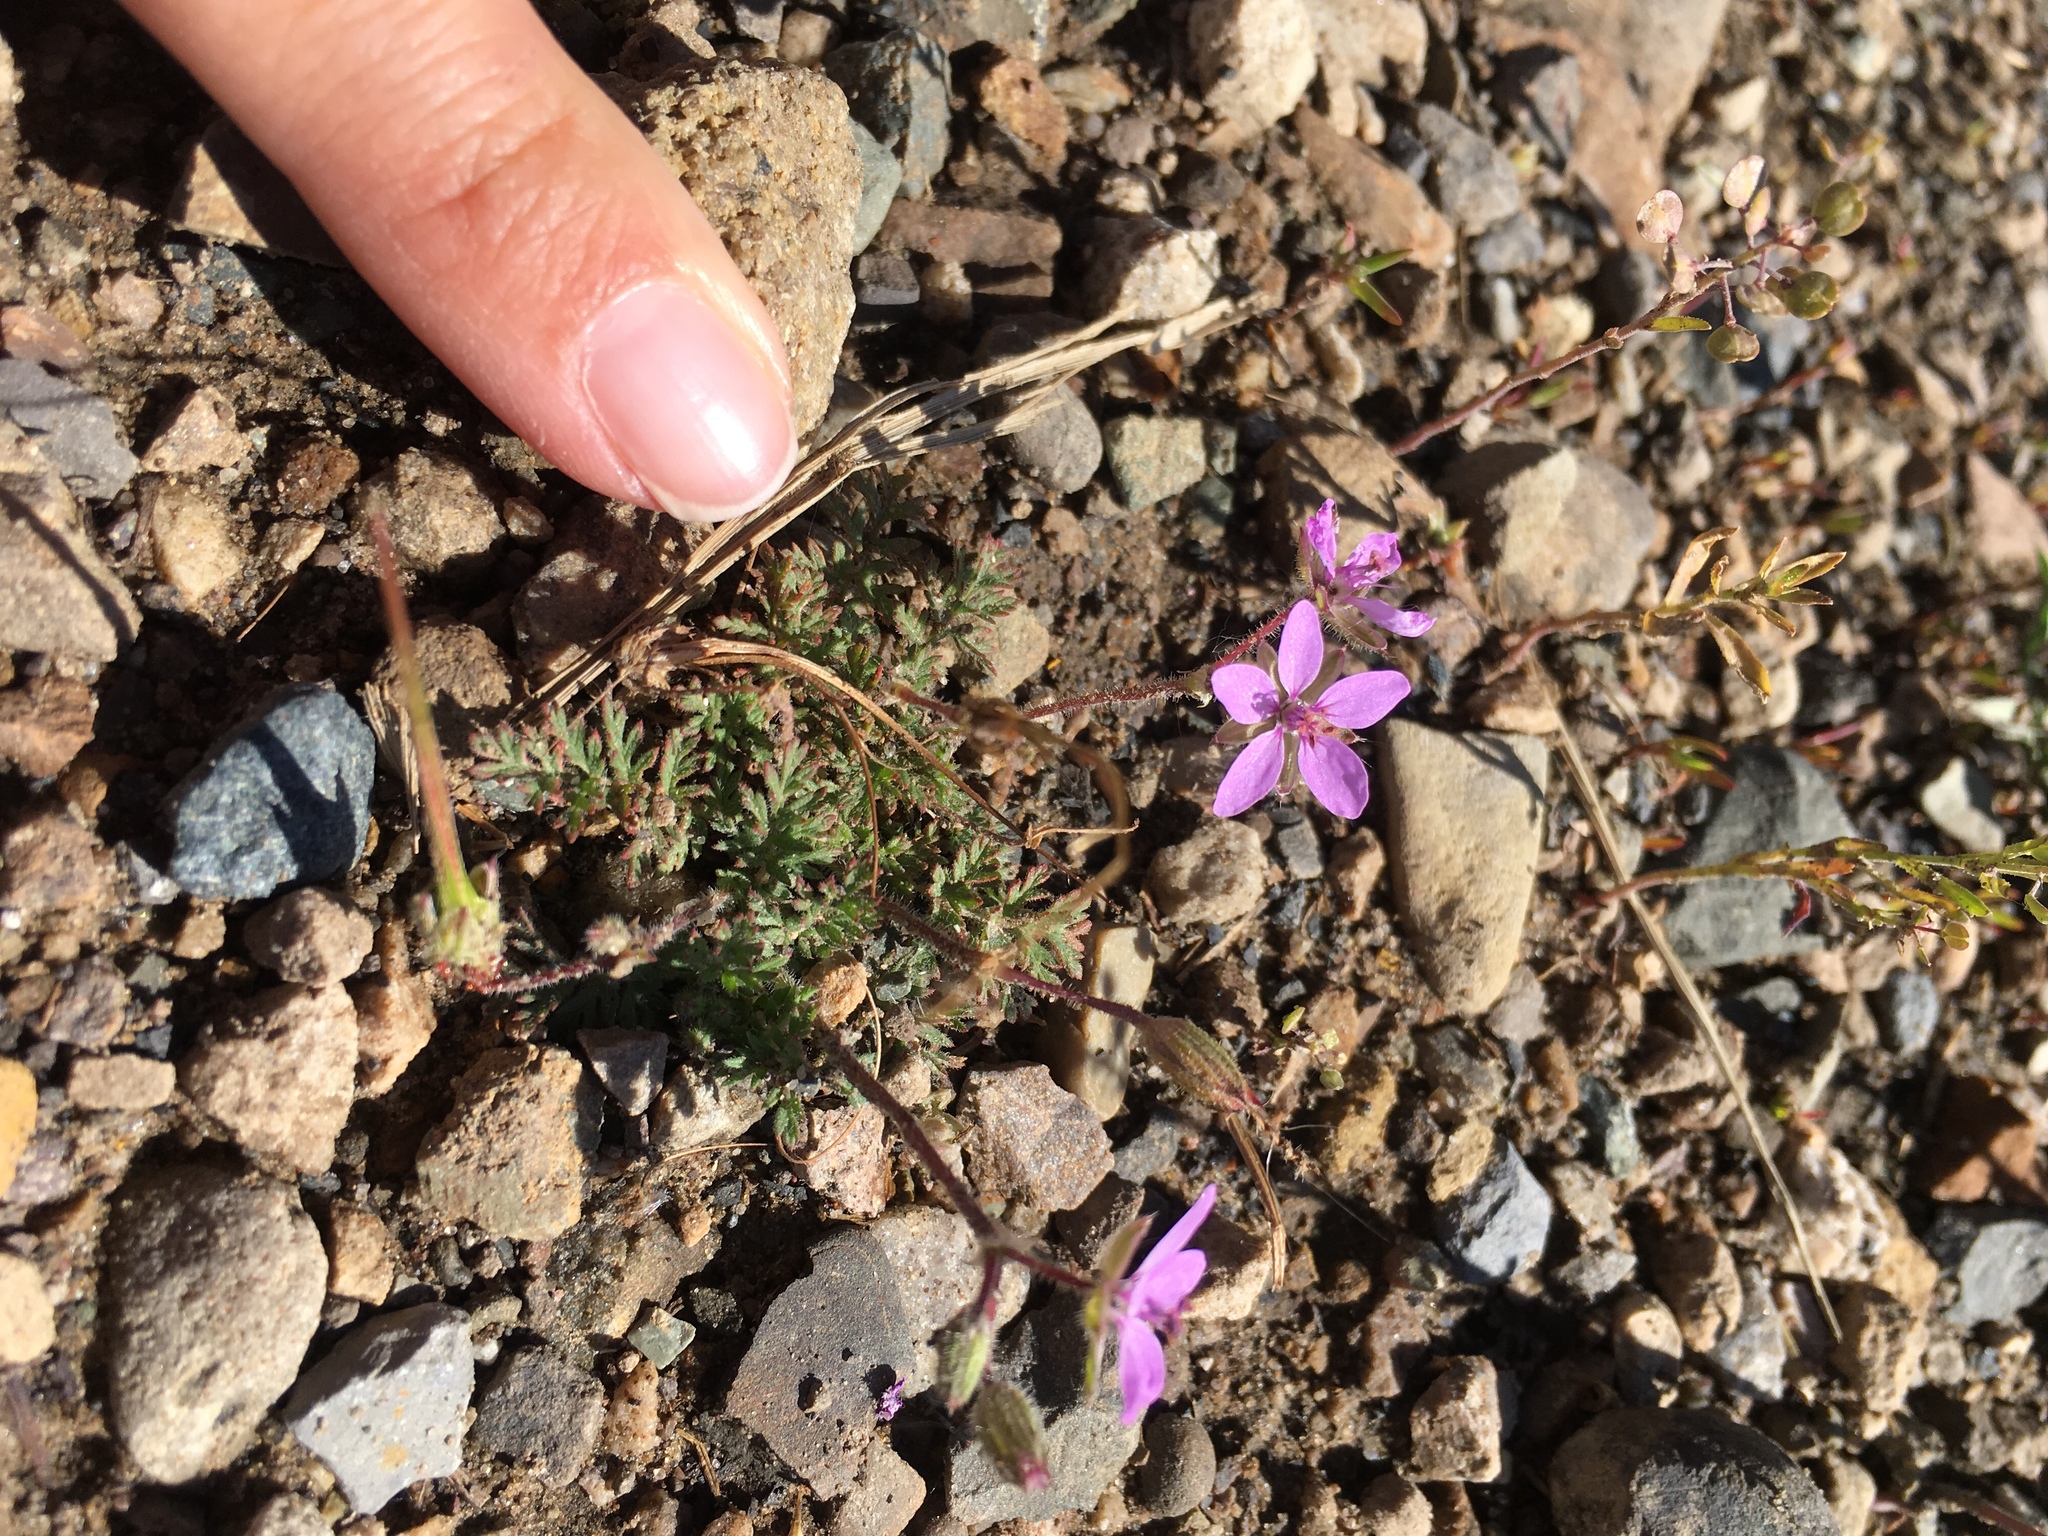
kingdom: Plantae
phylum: Tracheophyta
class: Magnoliopsida
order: Geraniales
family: Geraniaceae
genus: Erodium
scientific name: Erodium cicutarium
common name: Common stork's-bill
